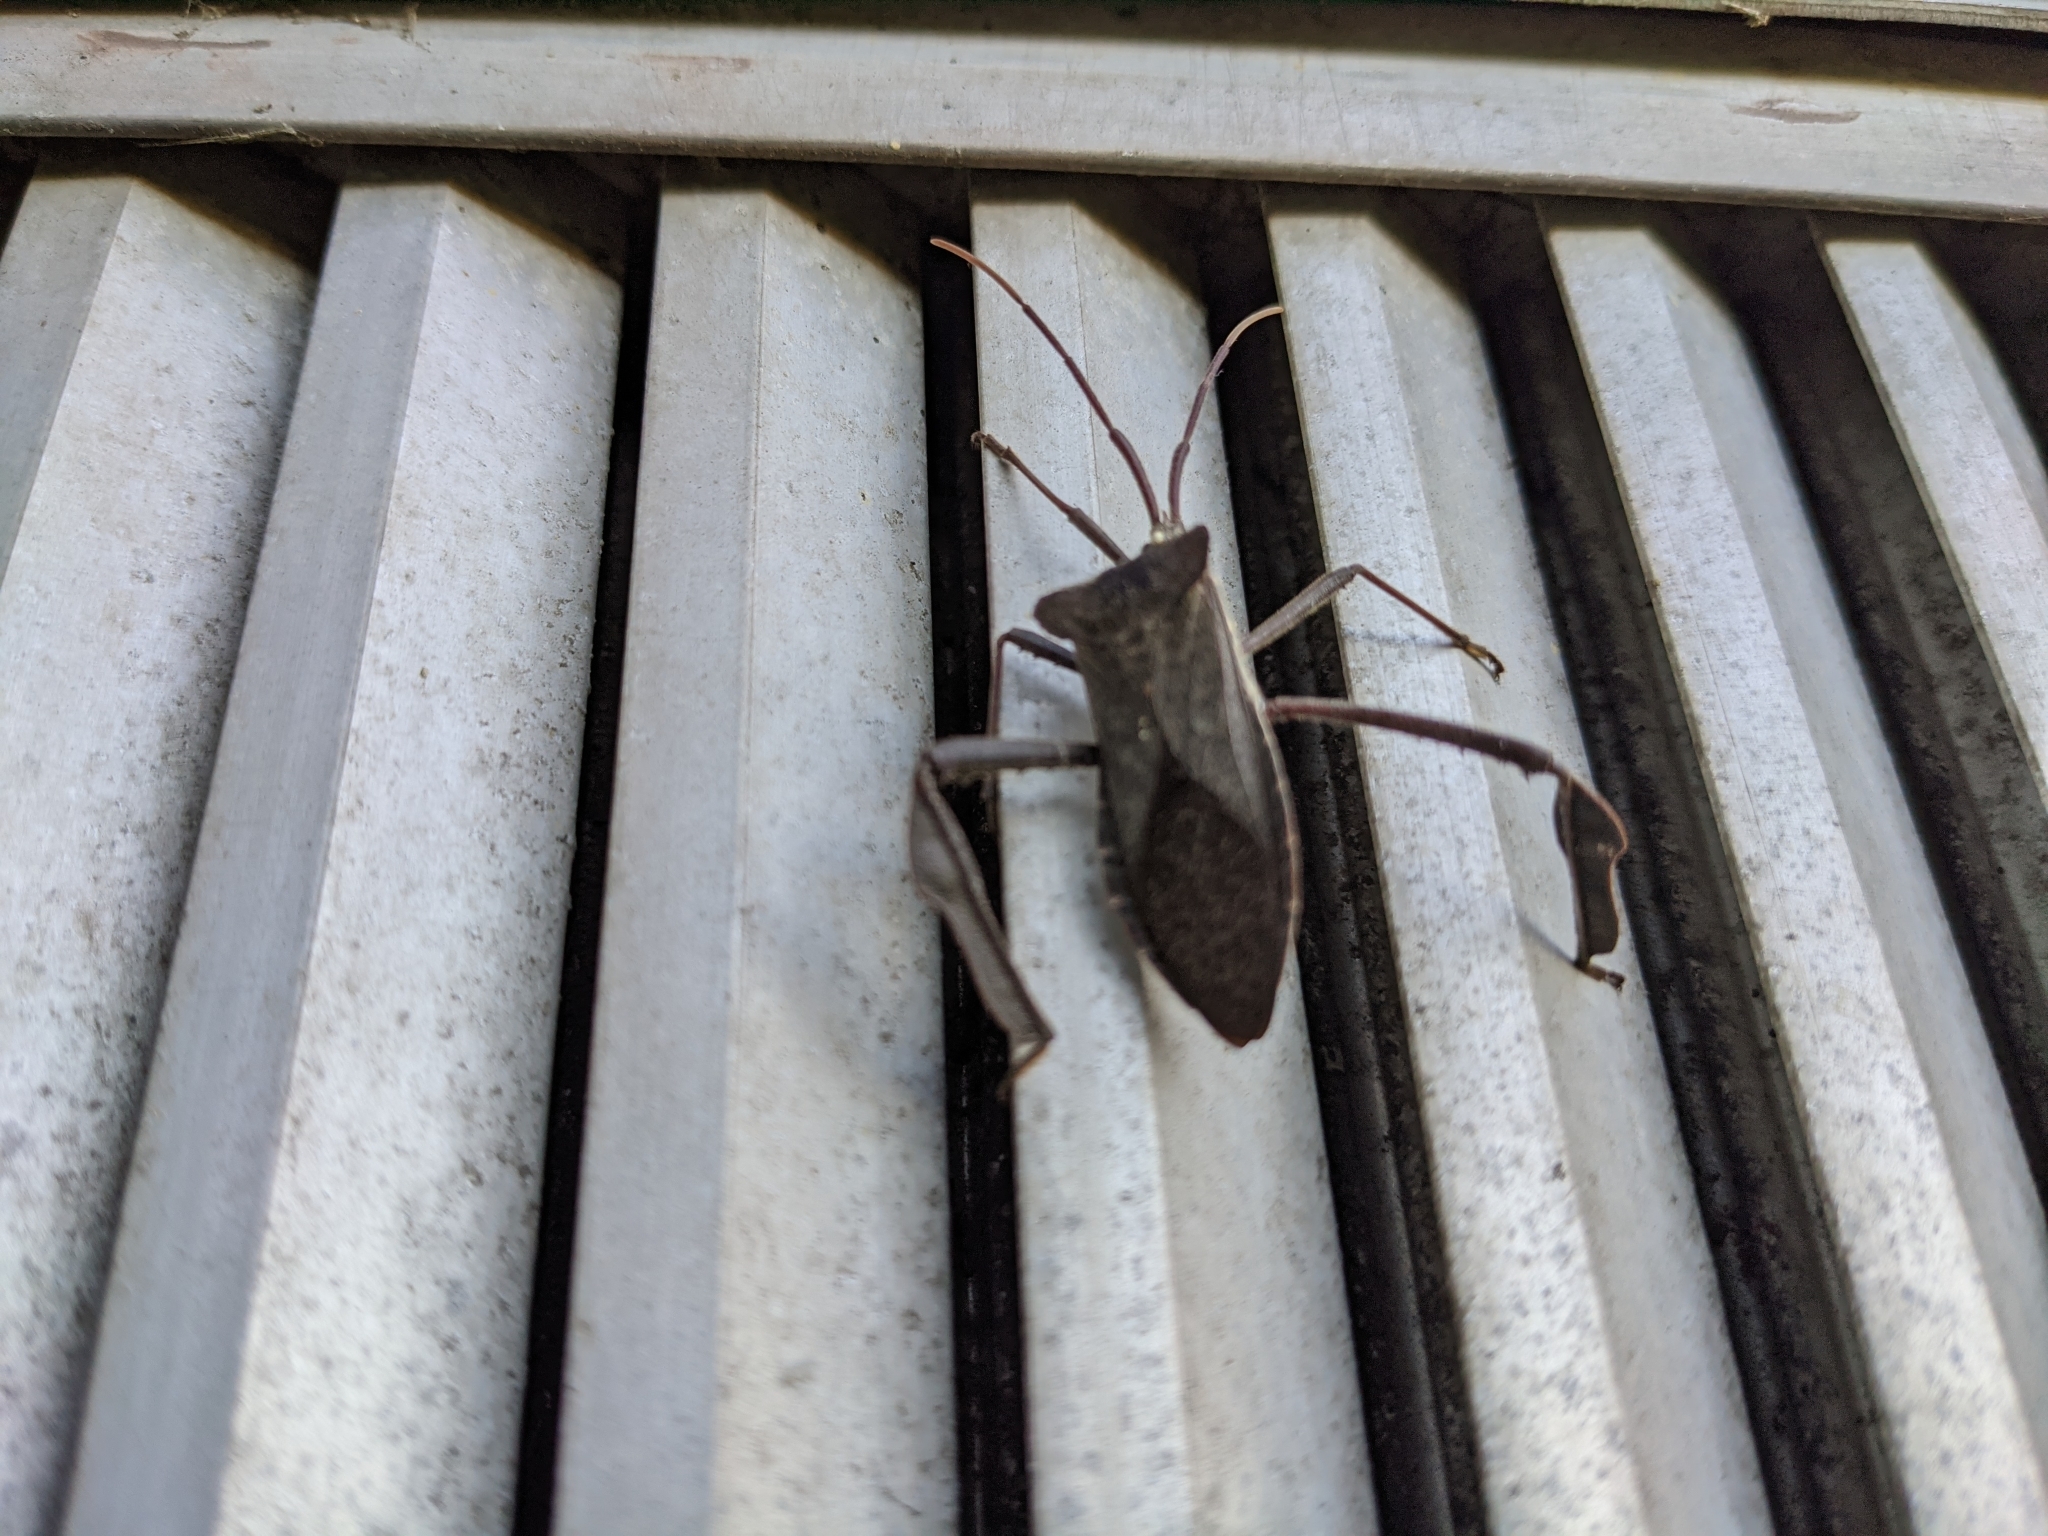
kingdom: Animalia
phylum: Arthropoda
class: Insecta
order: Hemiptera
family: Coreidae
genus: Acanthocephala
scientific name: Acanthocephala declivis
